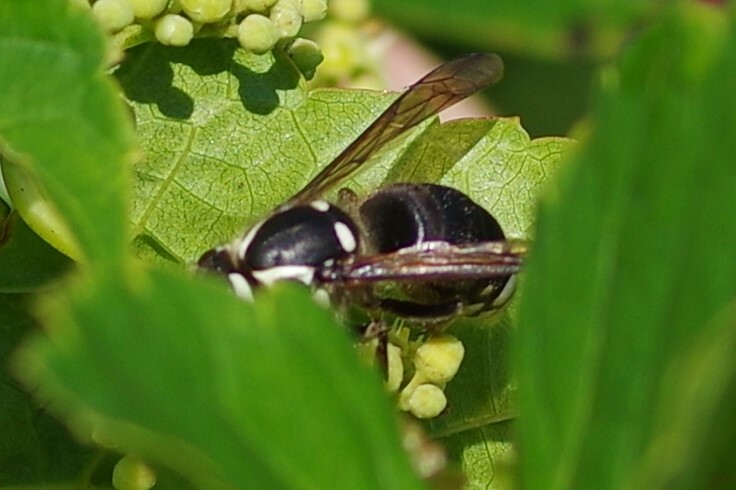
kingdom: Animalia
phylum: Arthropoda
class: Insecta
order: Hymenoptera
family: Vespidae
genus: Dolichovespula
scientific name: Dolichovespula maculata
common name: Bald-faced hornet
